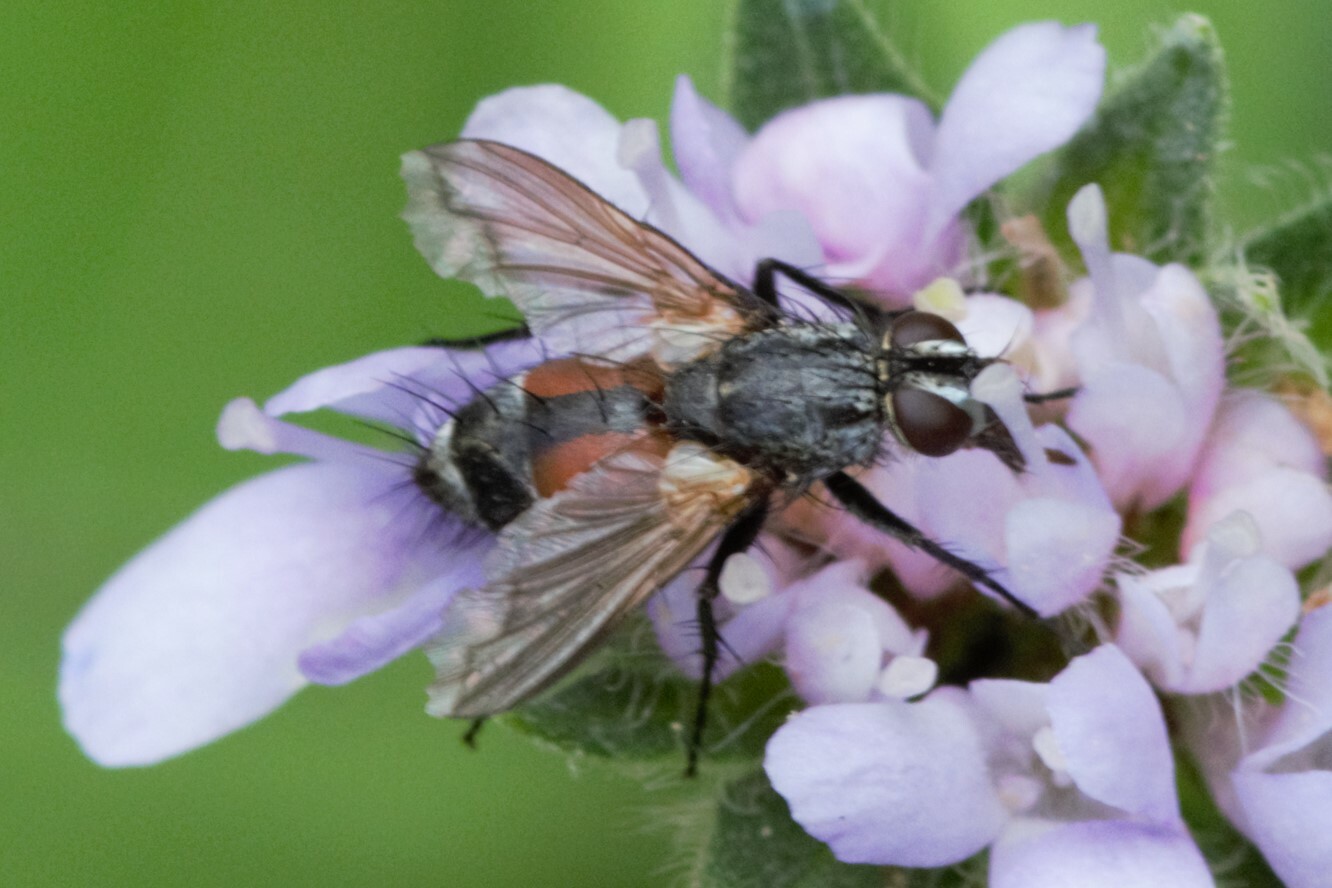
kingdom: Animalia
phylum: Arthropoda
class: Insecta
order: Diptera
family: Tachinidae
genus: Eriothrix
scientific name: Eriothrix rufomaculatus
